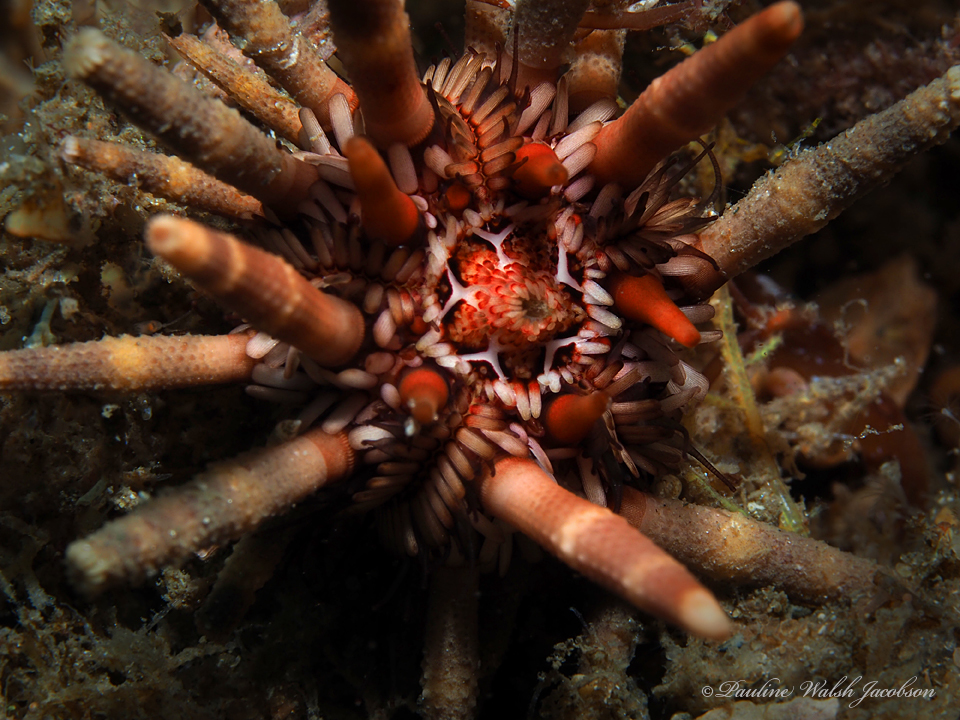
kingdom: Animalia
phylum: Echinodermata
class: Echinoidea
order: Cidaroida
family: Cidaridae
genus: Eucidaris
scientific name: Eucidaris tribuloides
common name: Slate pencil urchin
